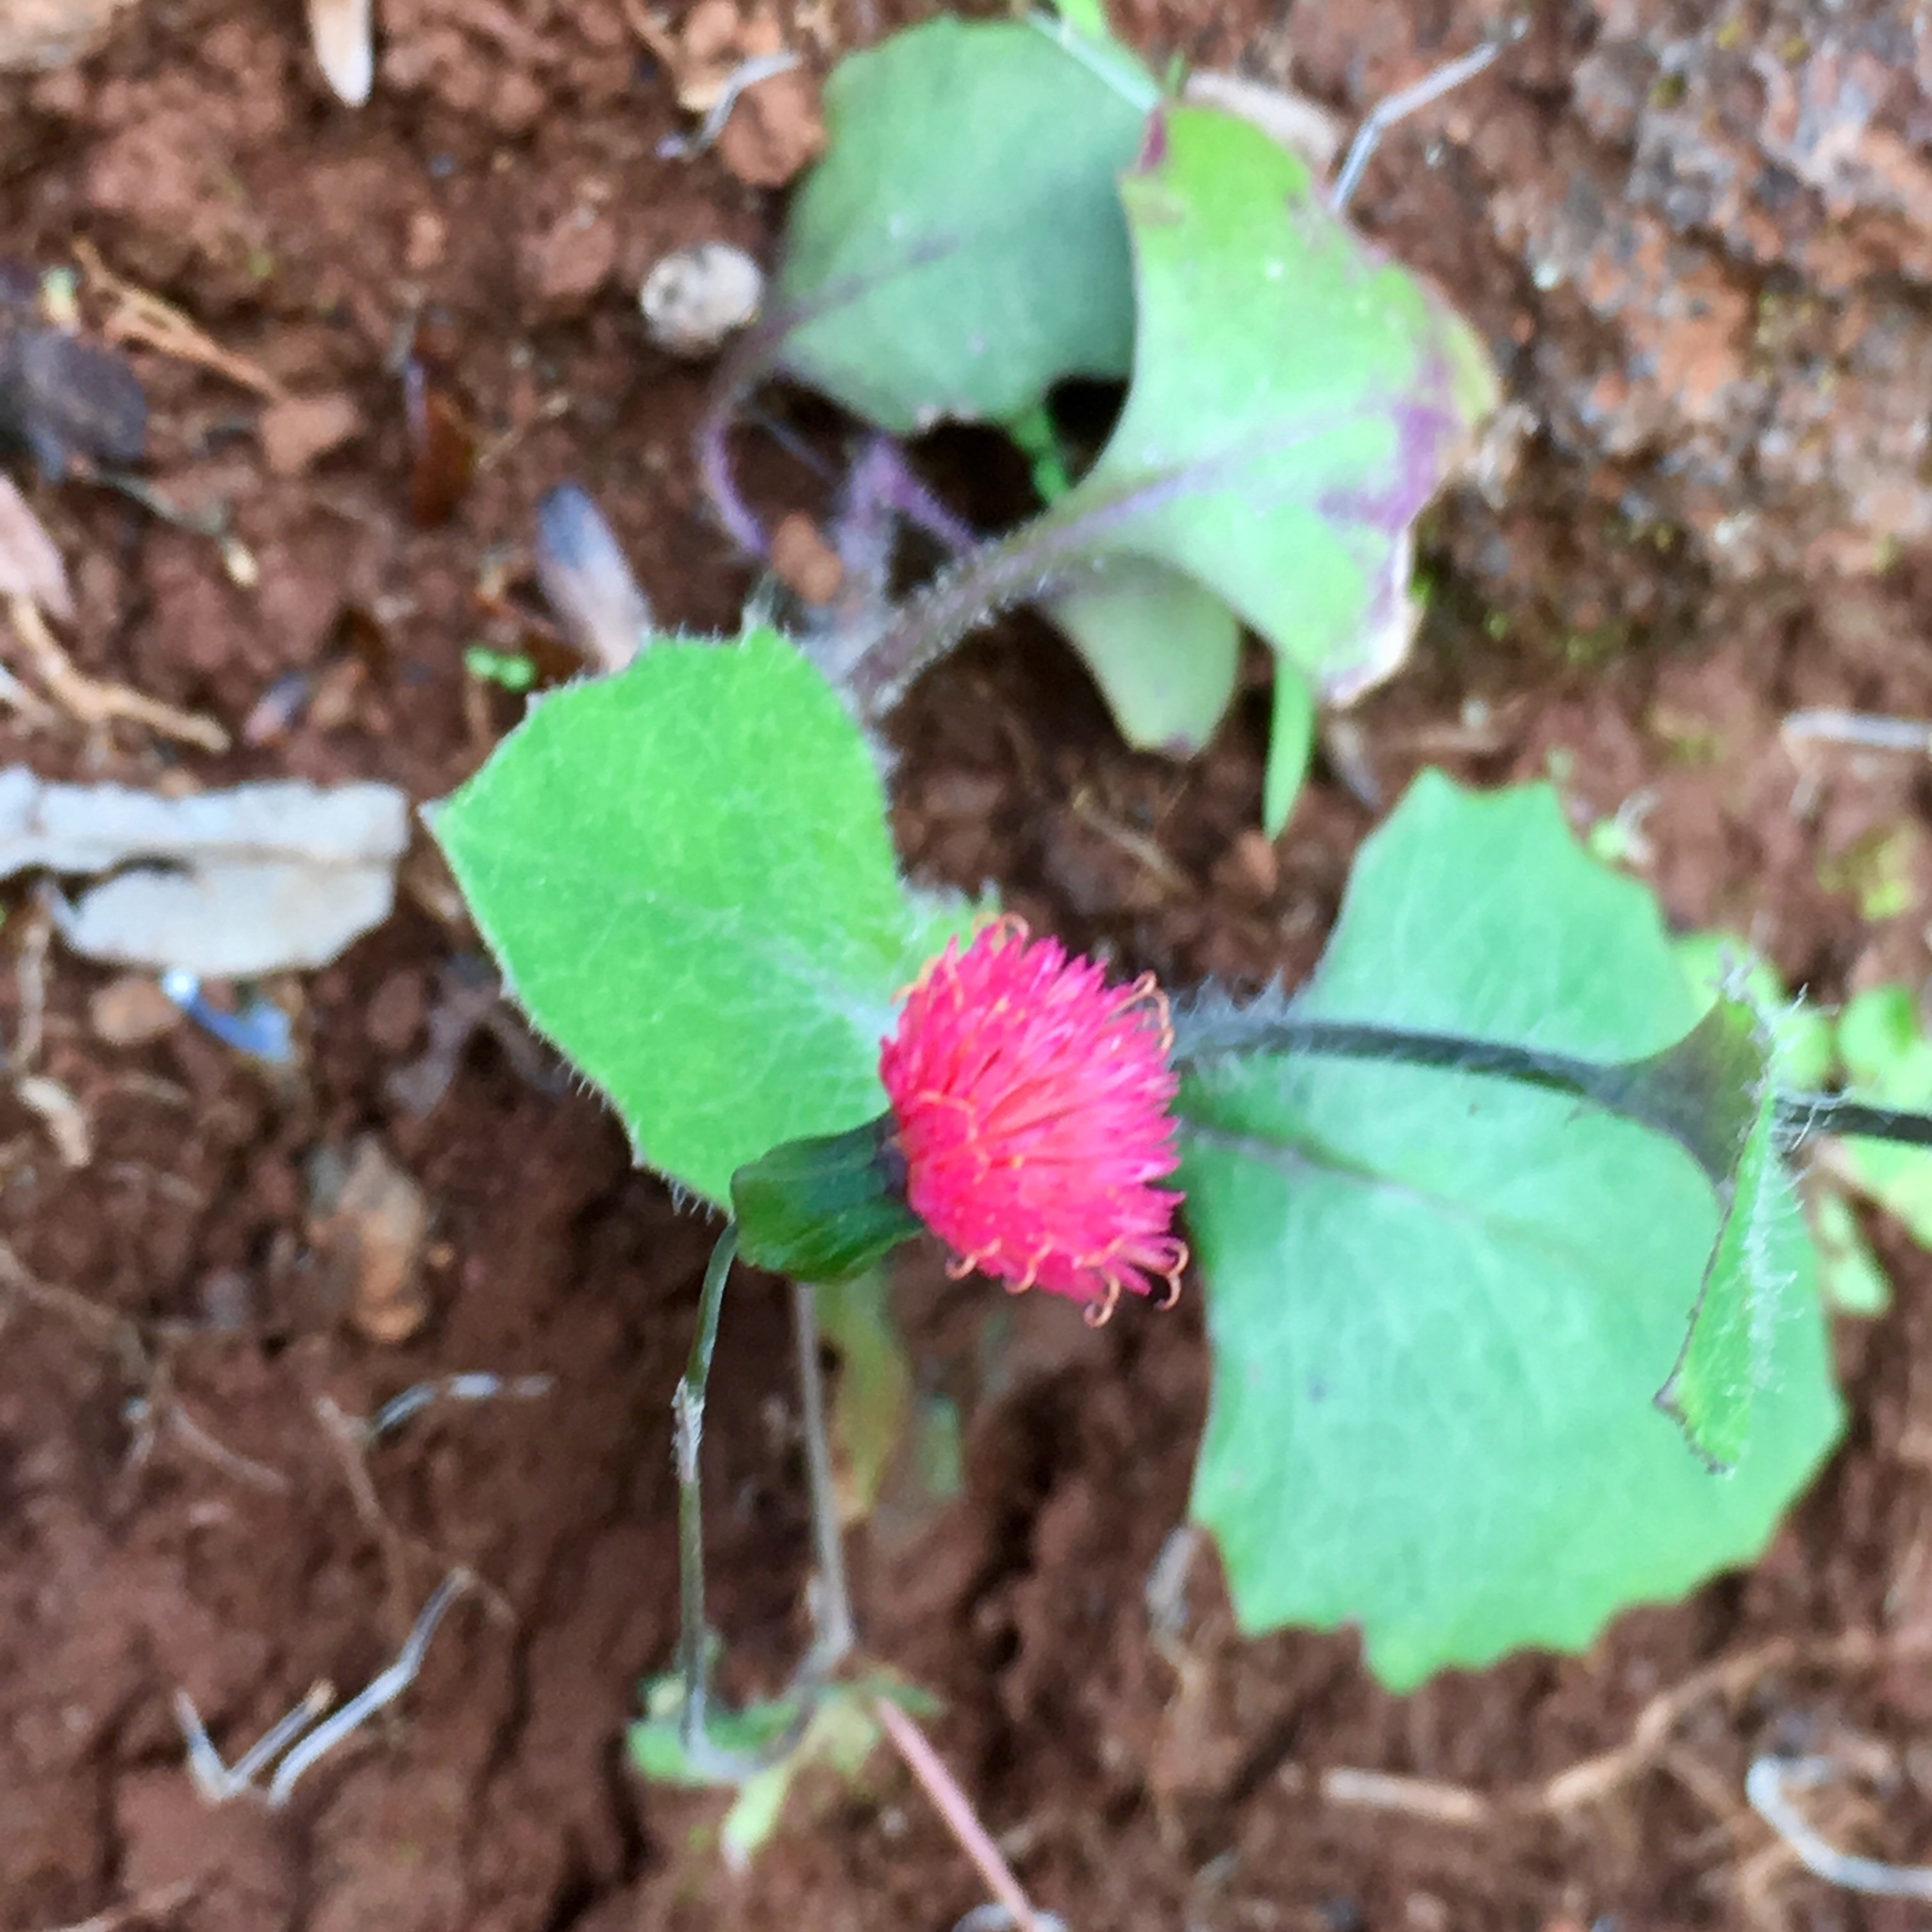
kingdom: Plantae
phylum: Tracheophyta
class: Magnoliopsida
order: Asterales
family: Asteraceae
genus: Emilia
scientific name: Emilia fosbergii
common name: Florida tasselflower
